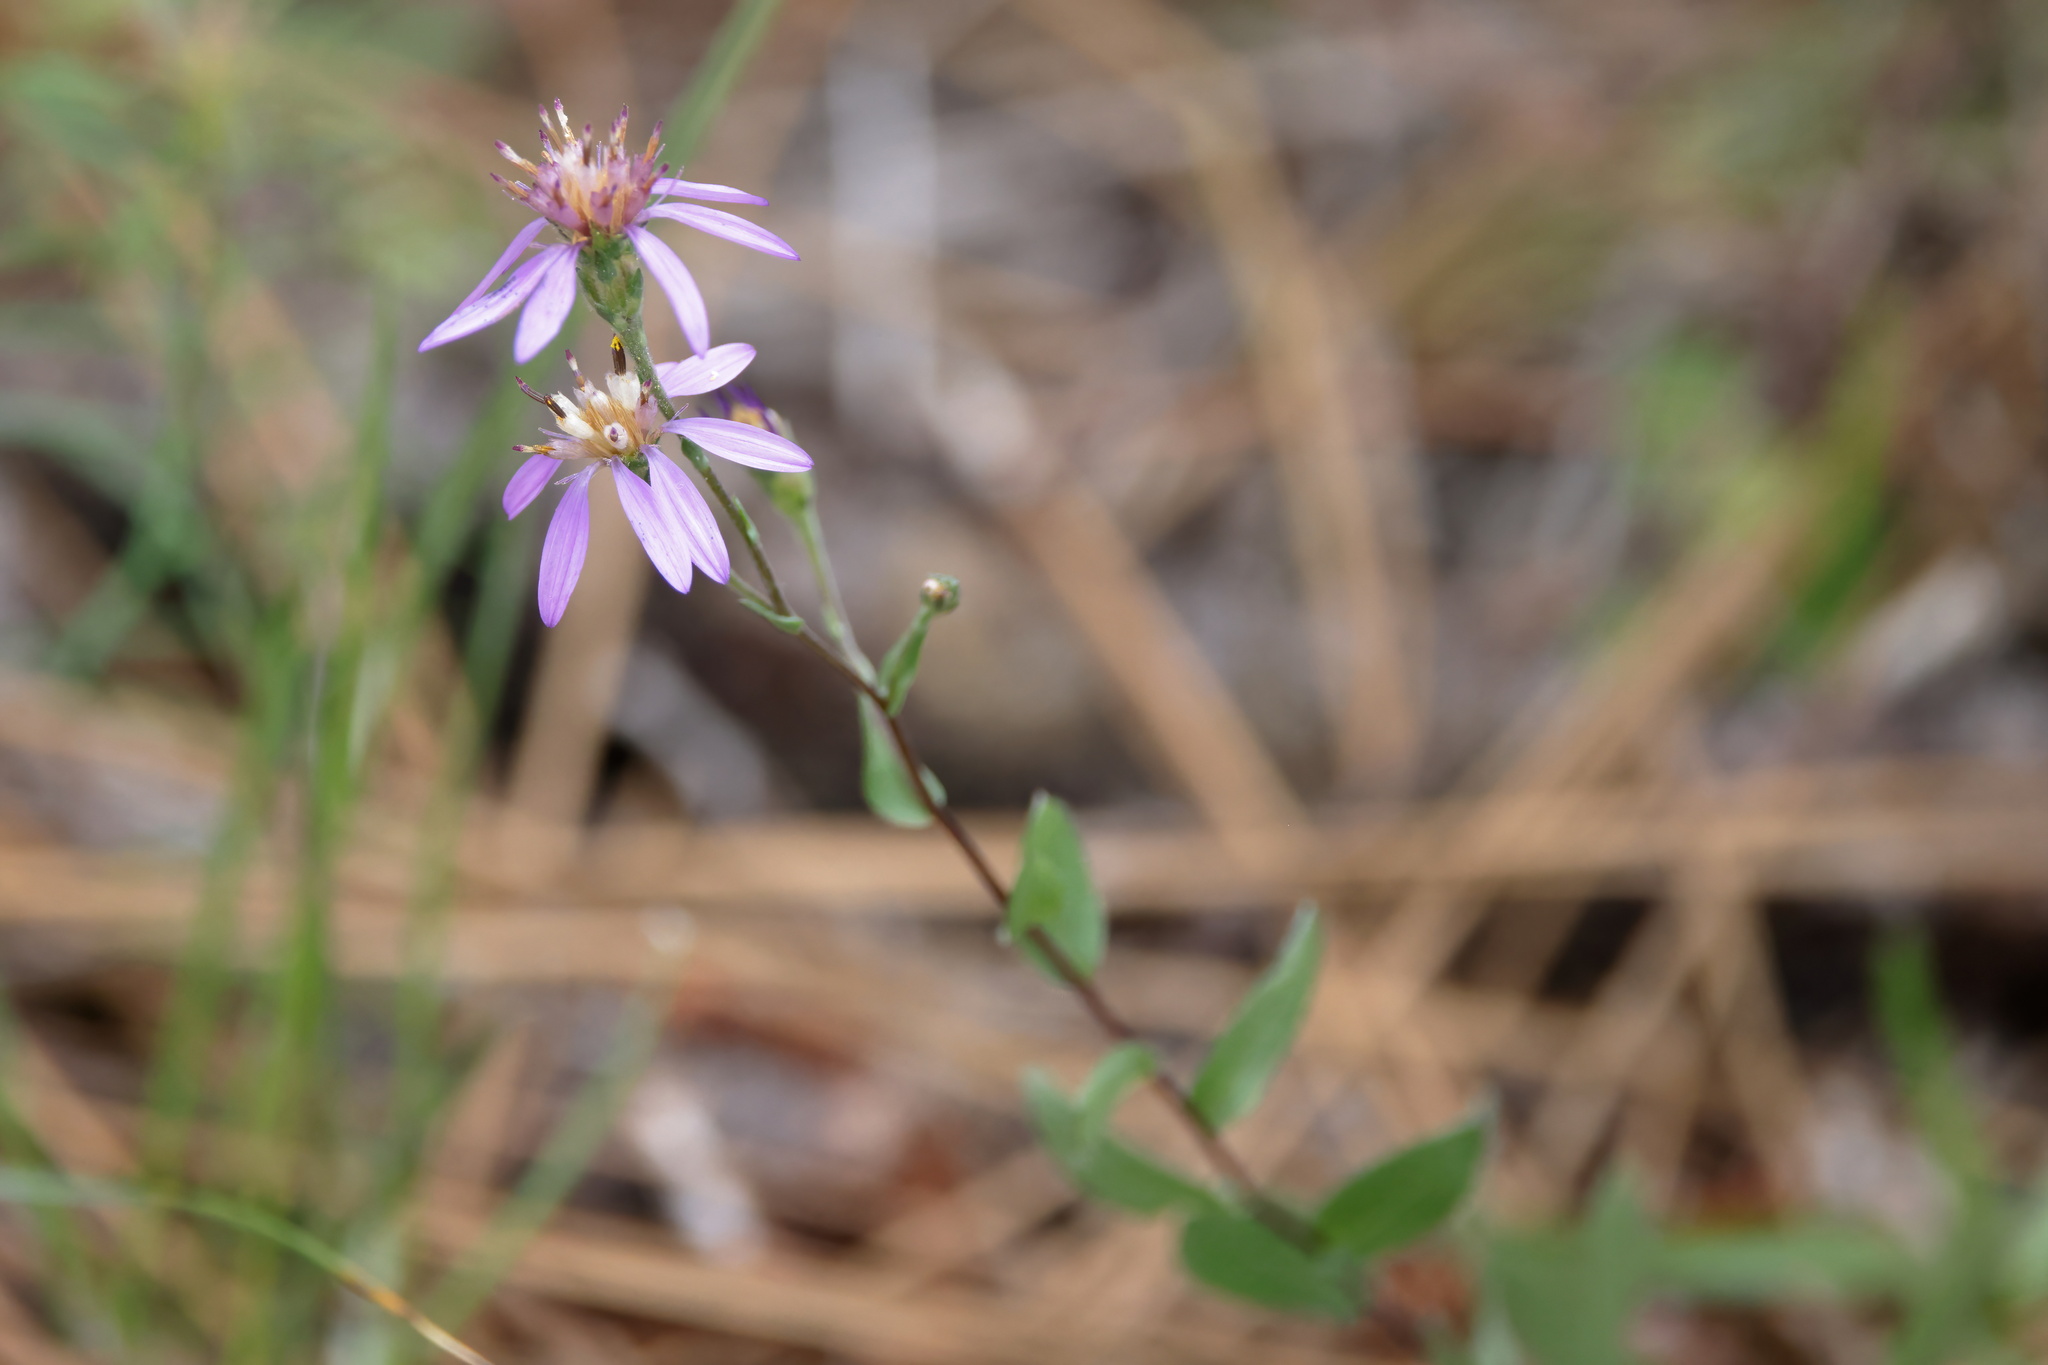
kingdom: Plantae
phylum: Tracheophyta
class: Magnoliopsida
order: Asterales
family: Asteraceae
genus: Symphyotrichum
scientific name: Symphyotrichum concolor
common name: Eastern silver aster
